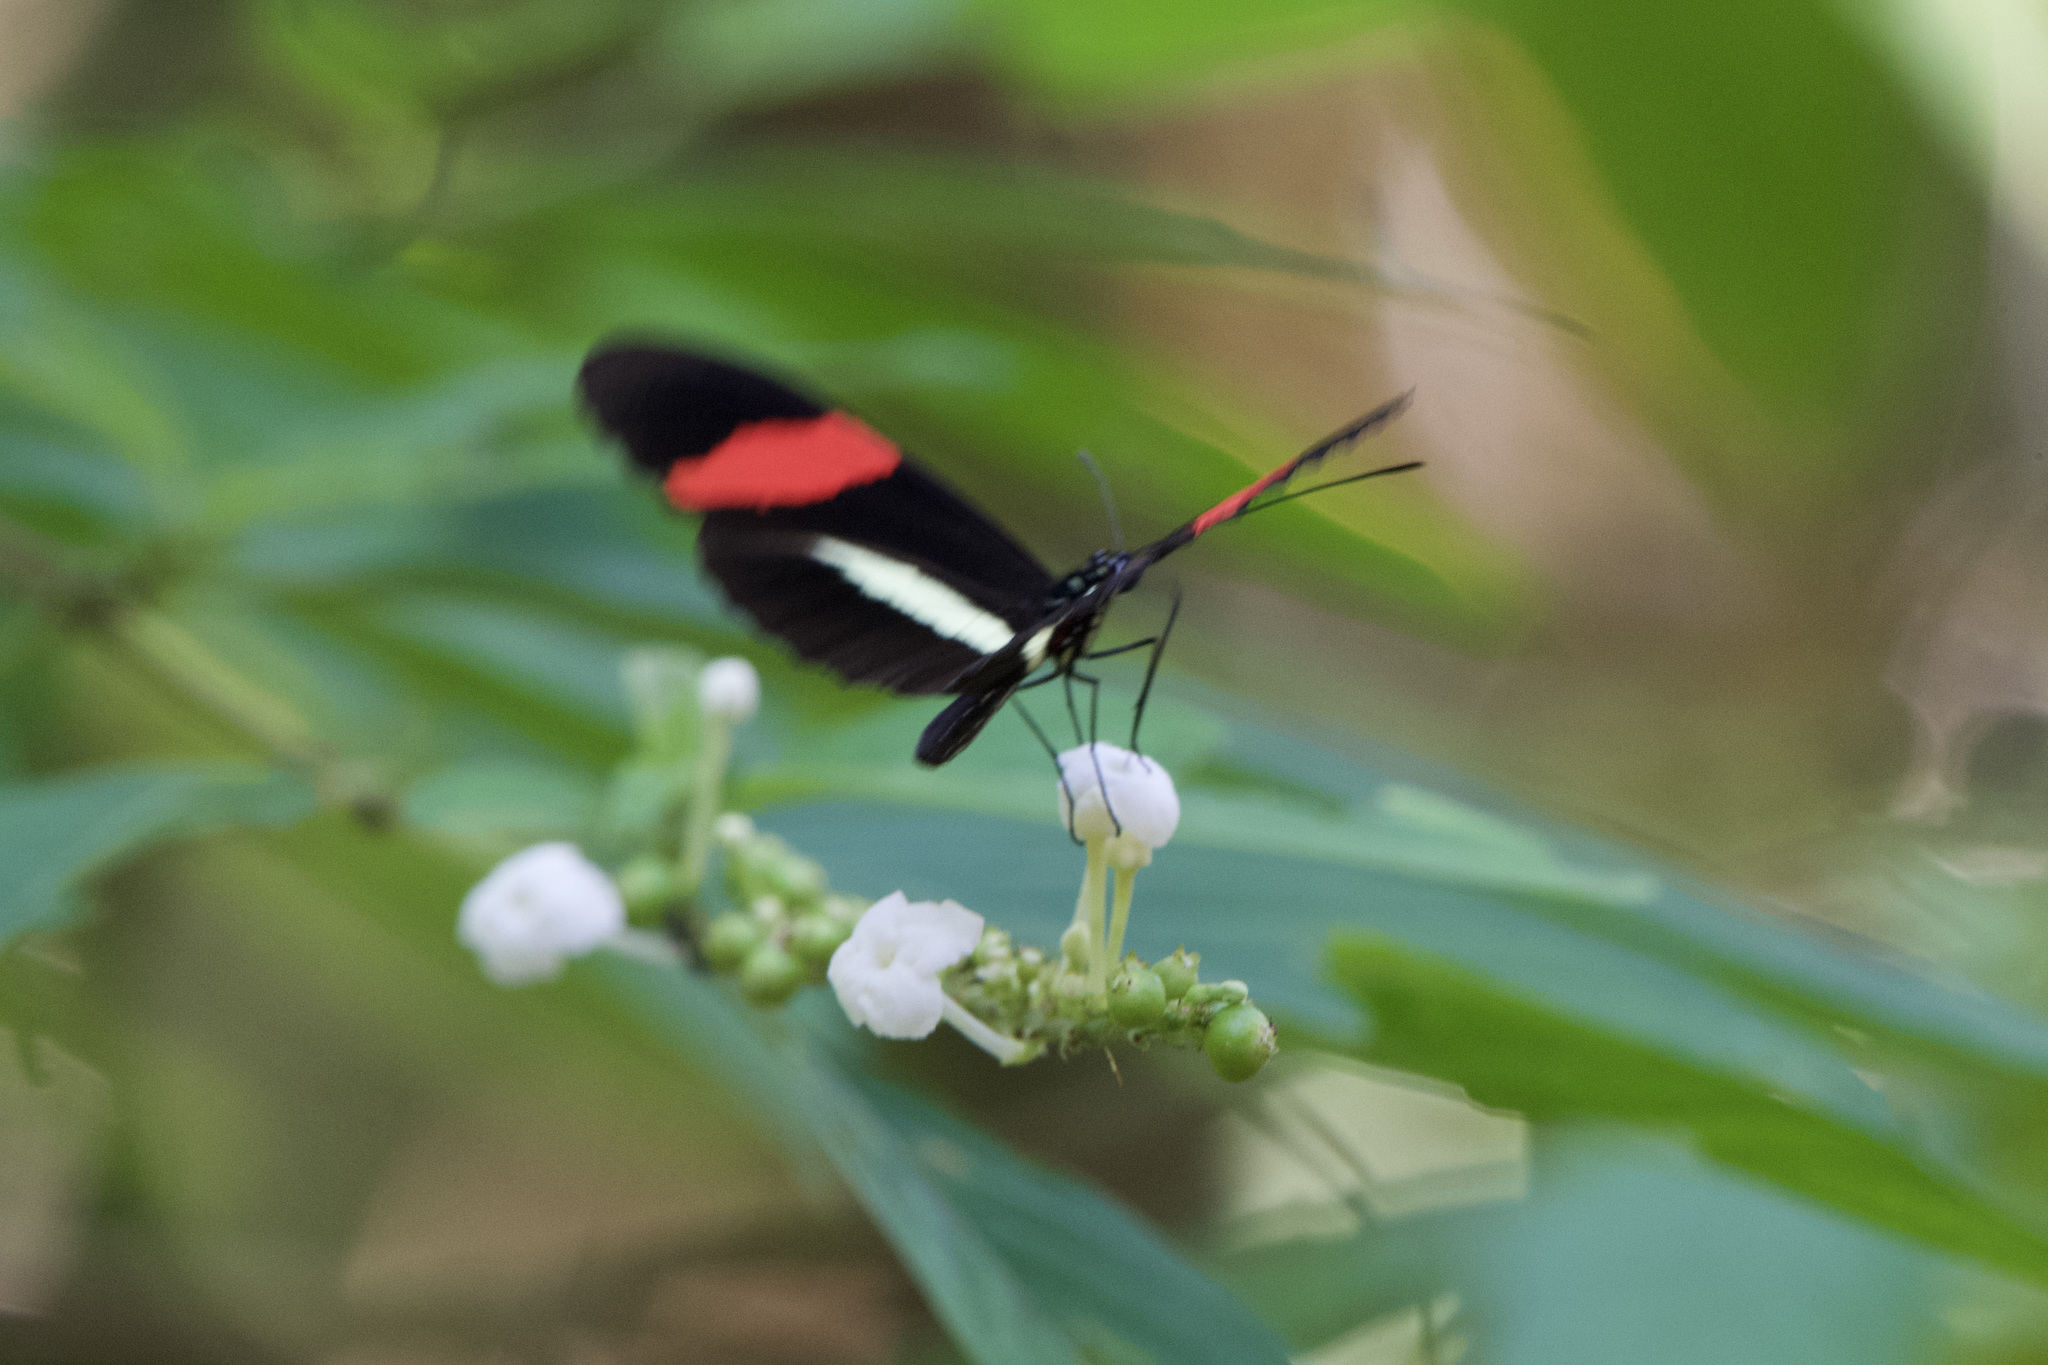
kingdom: Animalia
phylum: Arthropoda
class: Insecta
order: Lepidoptera
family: Nymphalidae
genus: Heliconius
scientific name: Heliconius melpomene
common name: Postman
